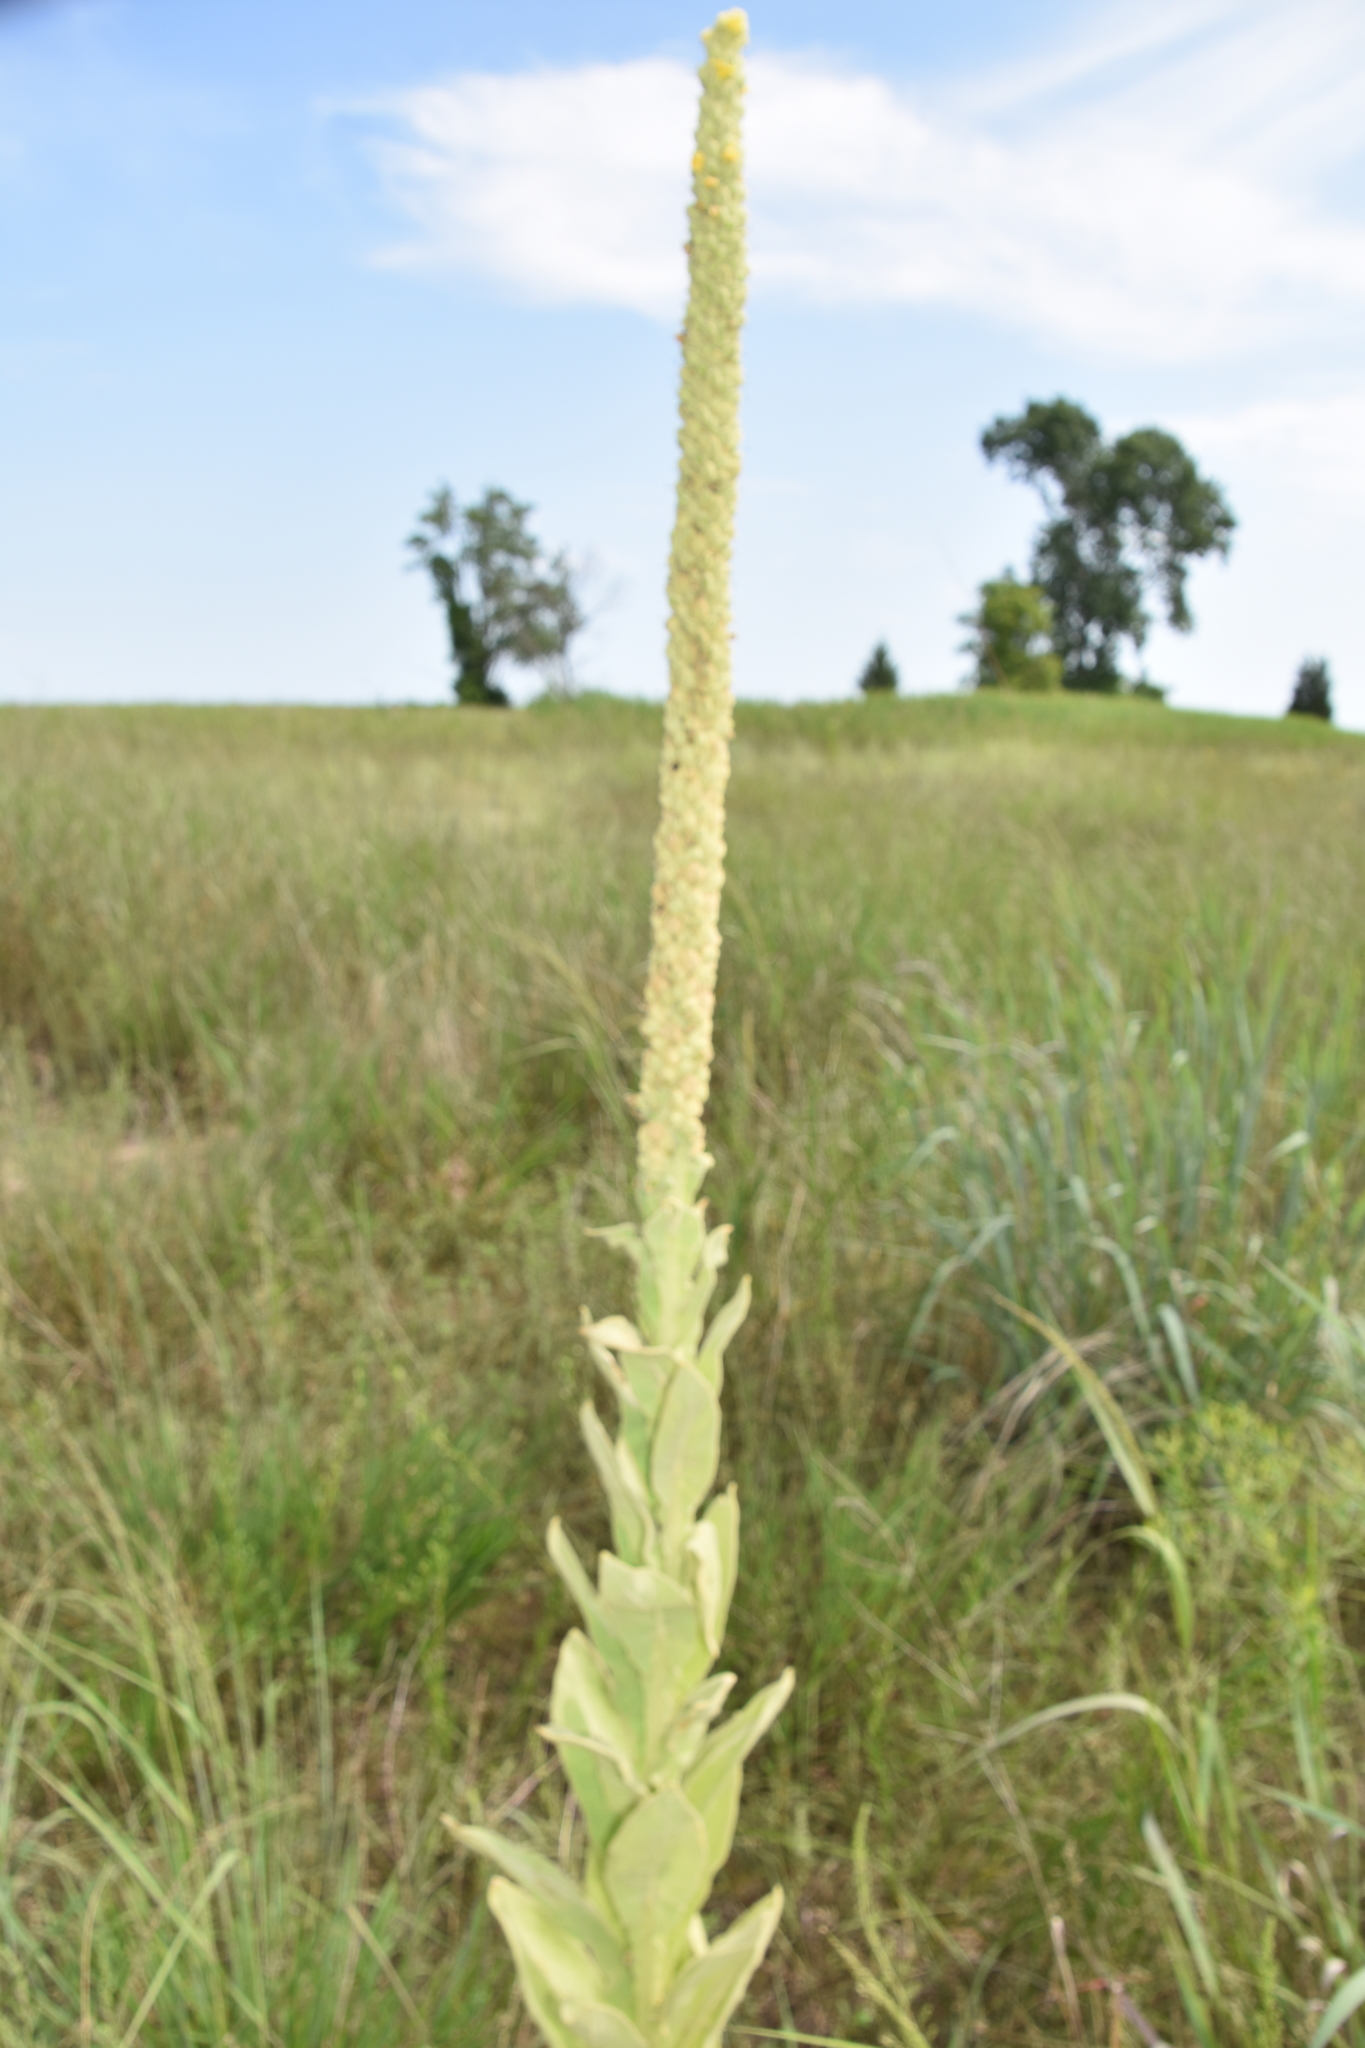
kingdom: Plantae
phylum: Tracheophyta
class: Magnoliopsida
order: Lamiales
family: Scrophulariaceae
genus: Verbascum
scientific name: Verbascum thapsus
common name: Common mullein
